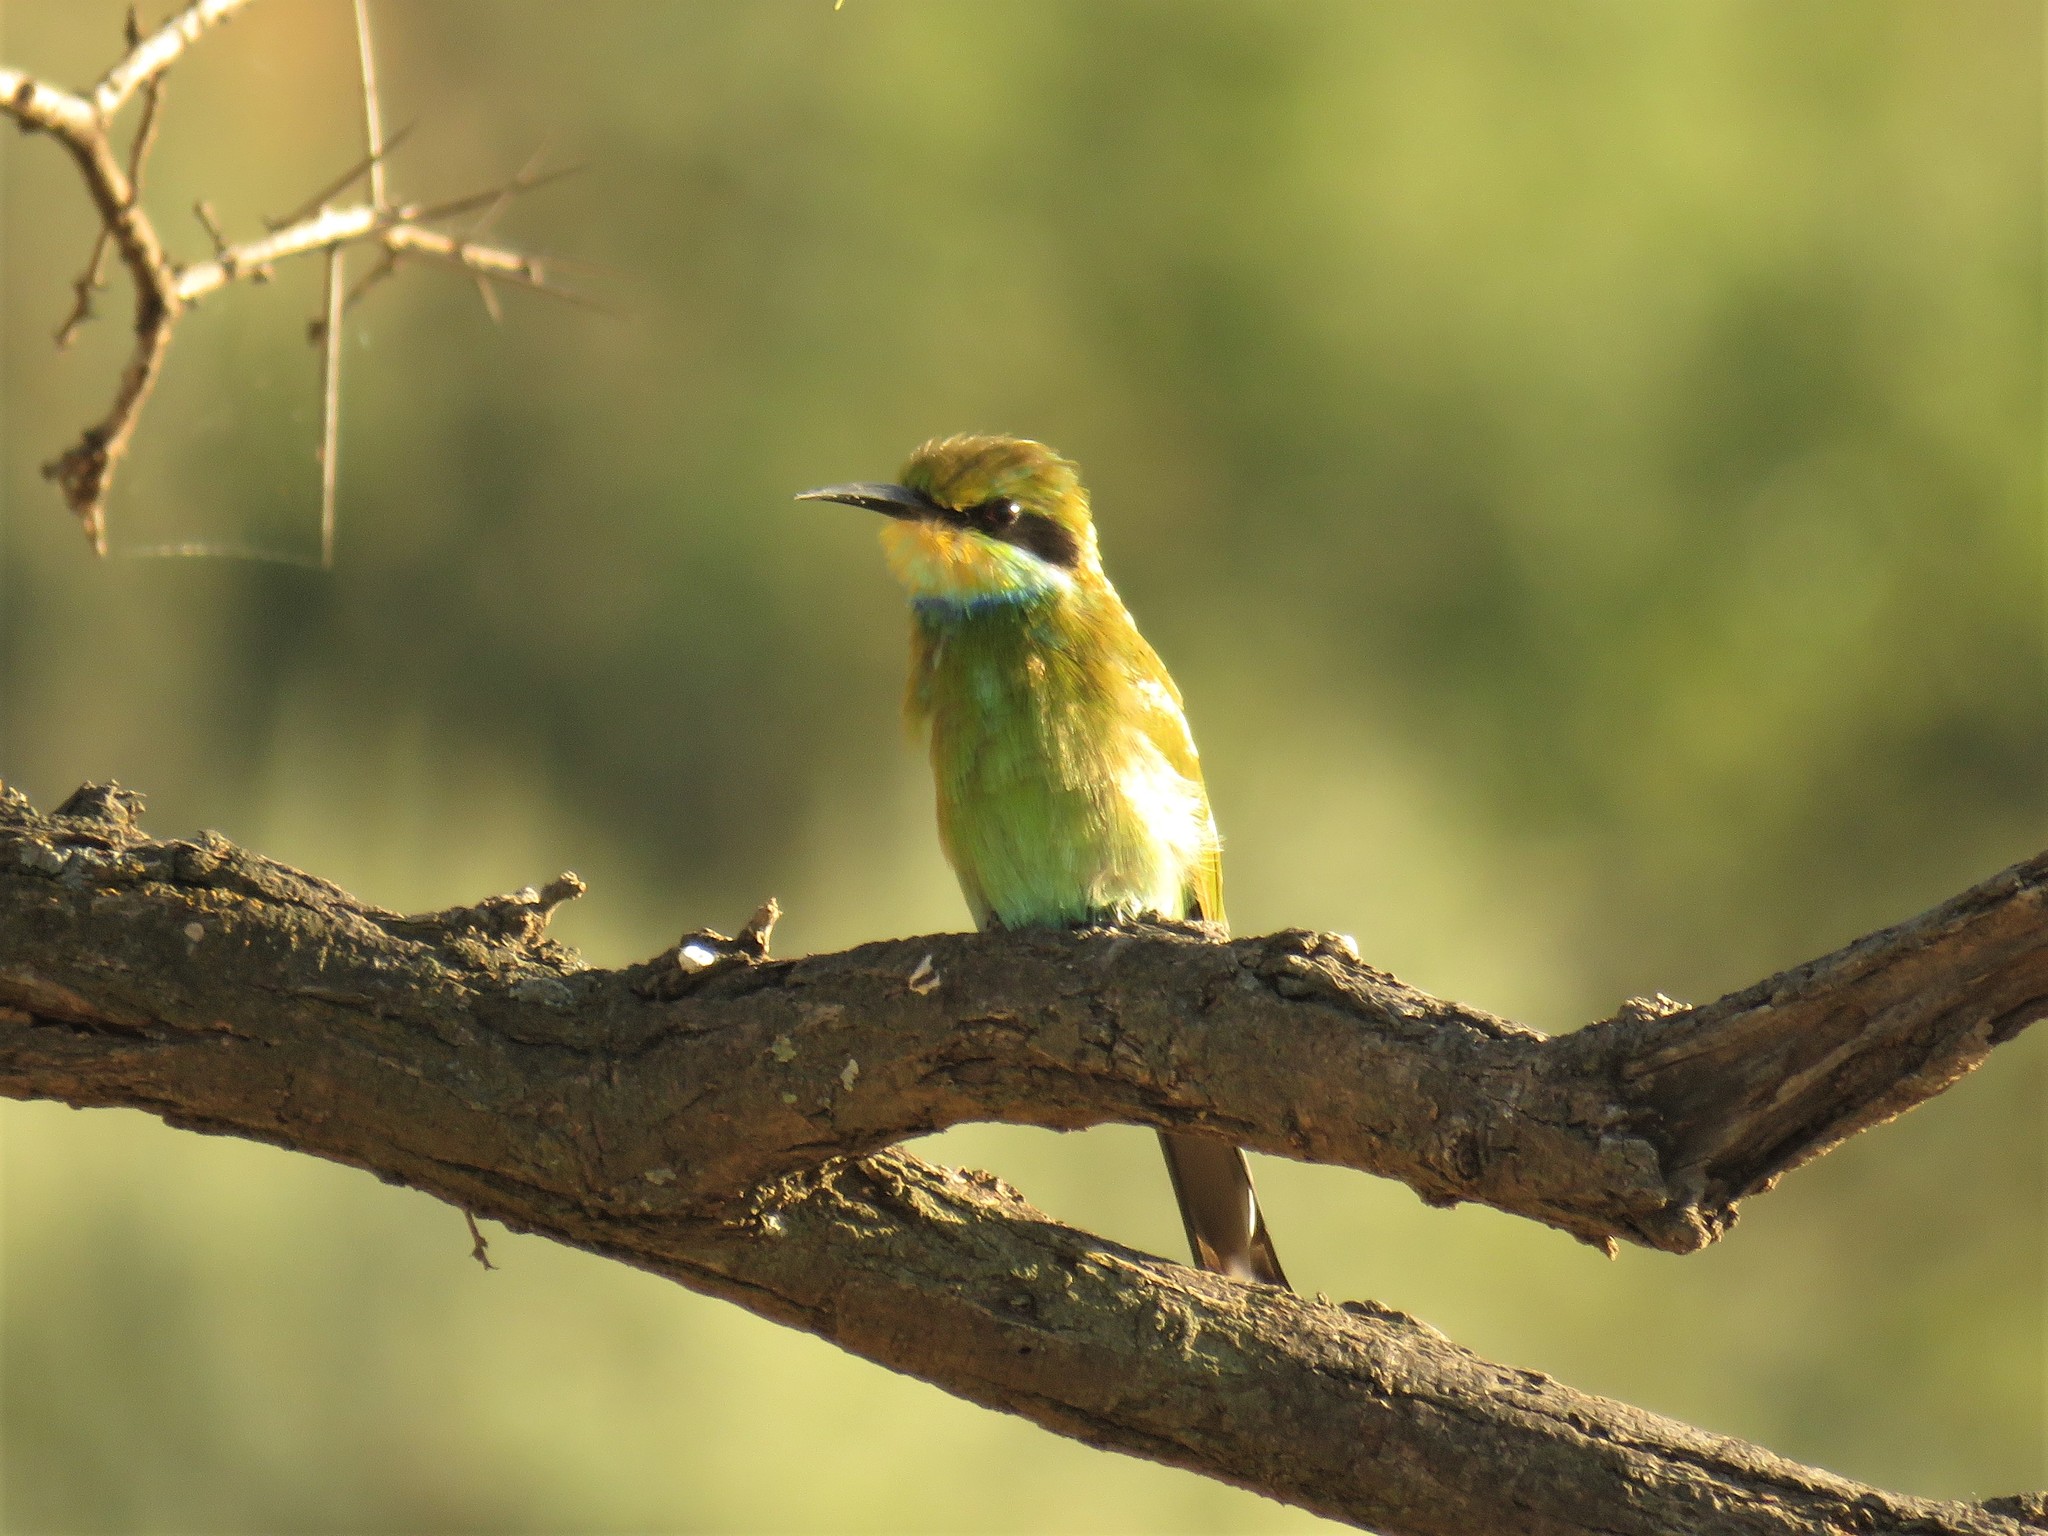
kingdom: Animalia
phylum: Chordata
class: Aves
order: Coraciiformes
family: Meropidae
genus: Merops
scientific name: Merops hirundineus
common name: Swallow-tailed bee-eater
